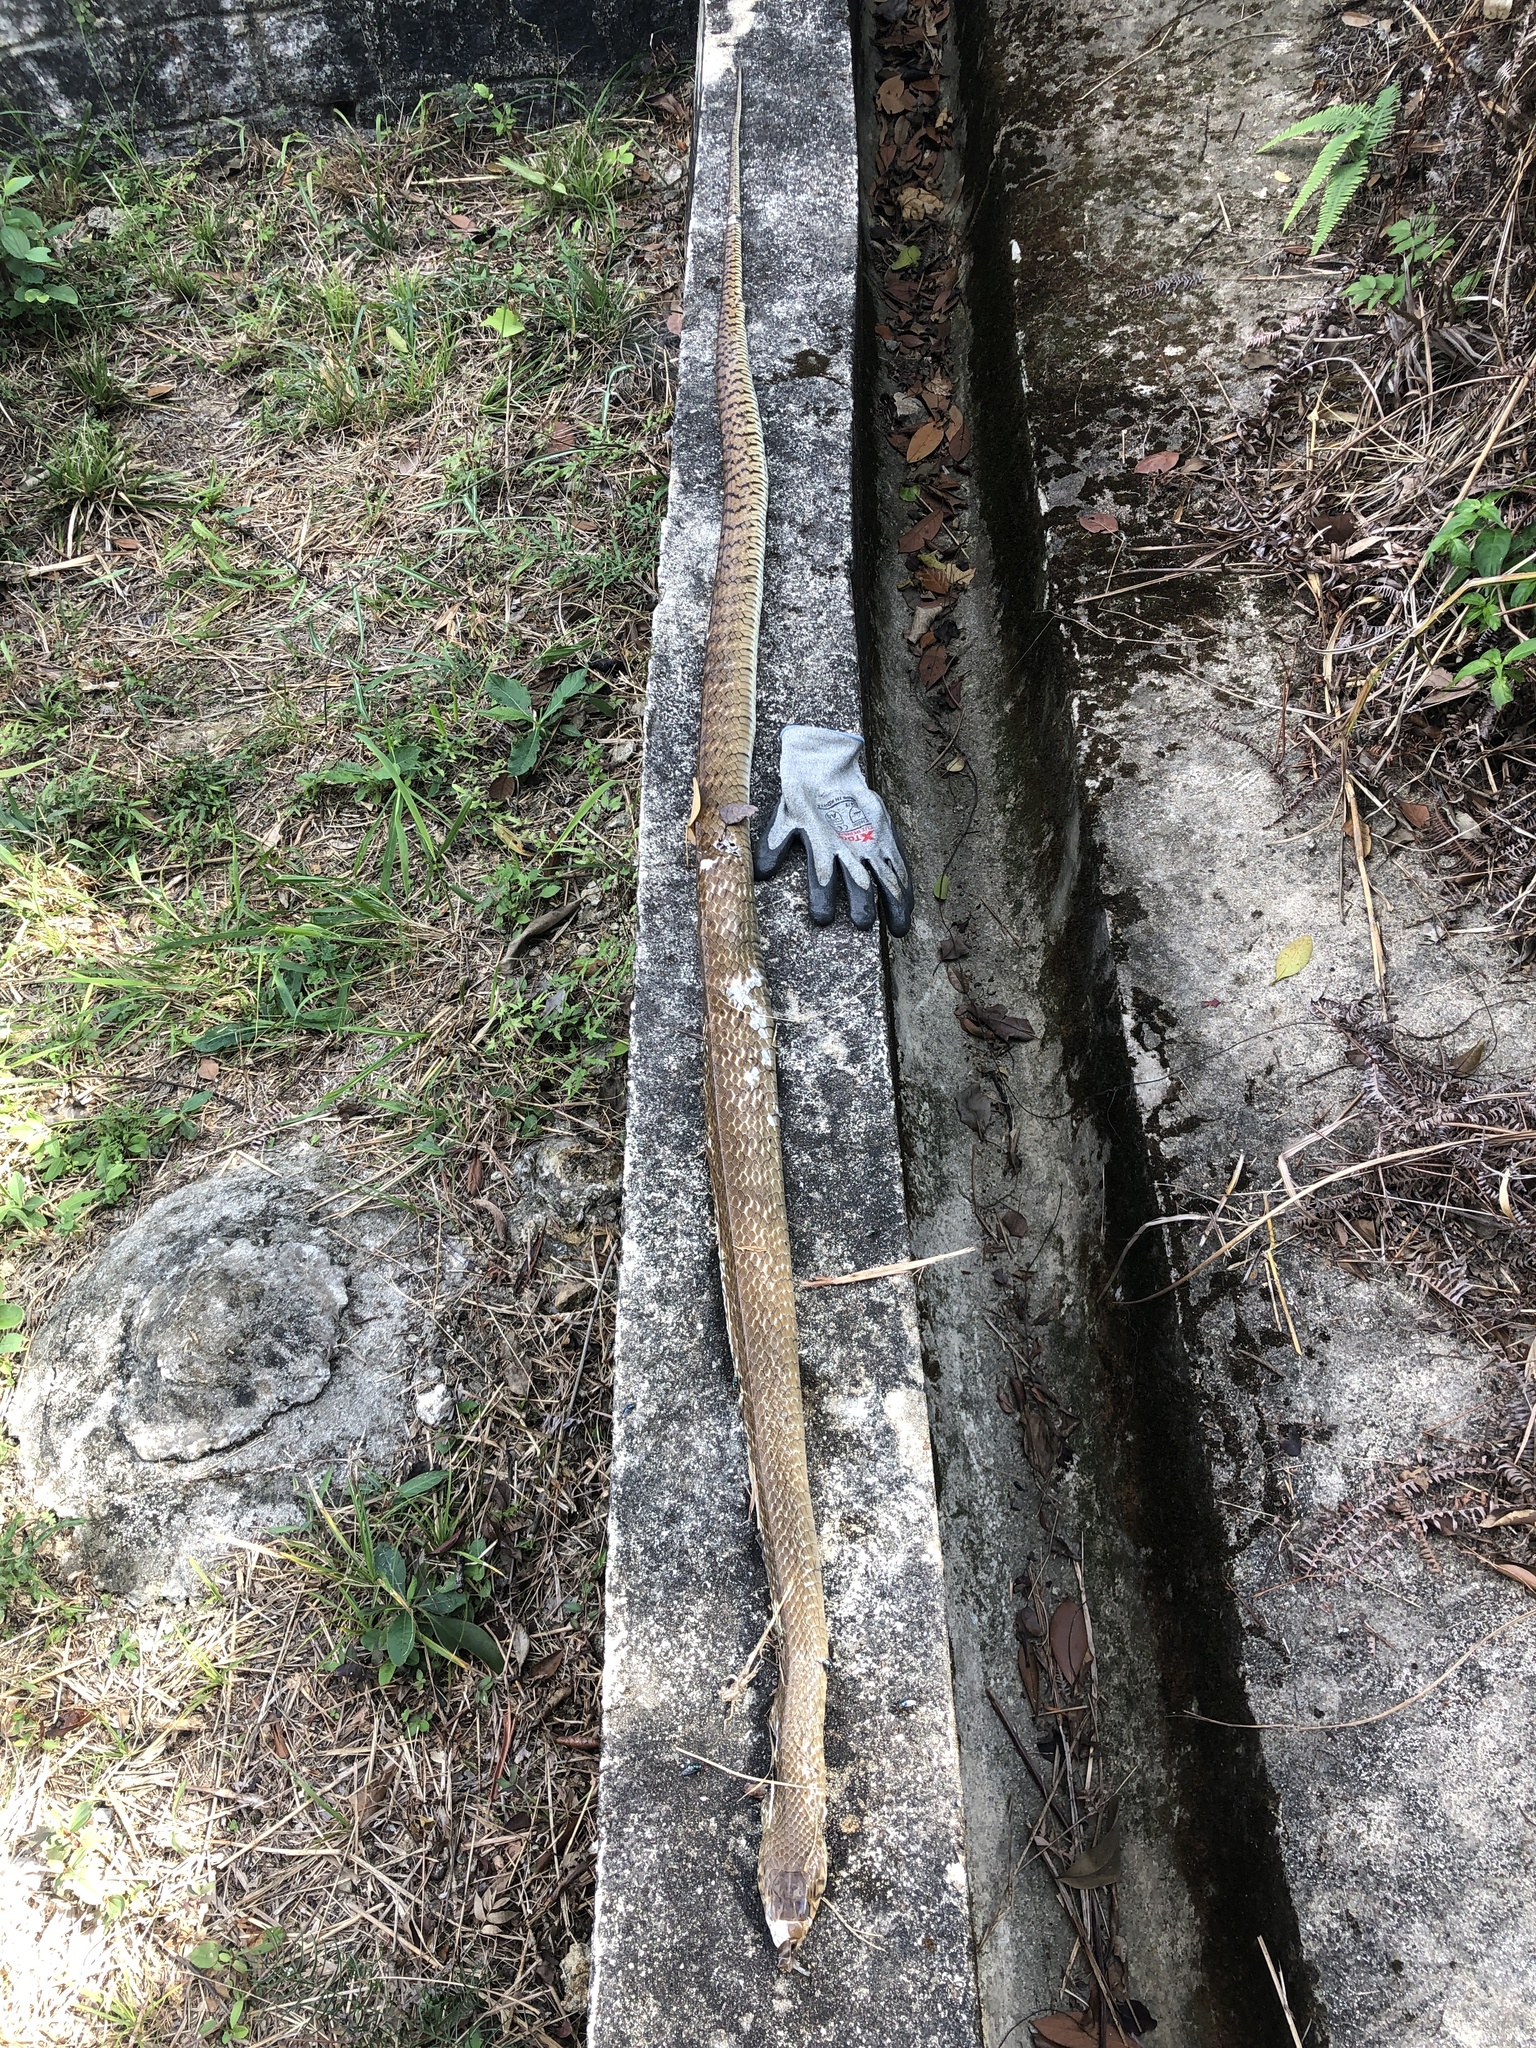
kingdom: Animalia
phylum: Chordata
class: Squamata
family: Colubridae
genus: Ptyas
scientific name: Ptyas mucosa
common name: Oriental ratsnake
